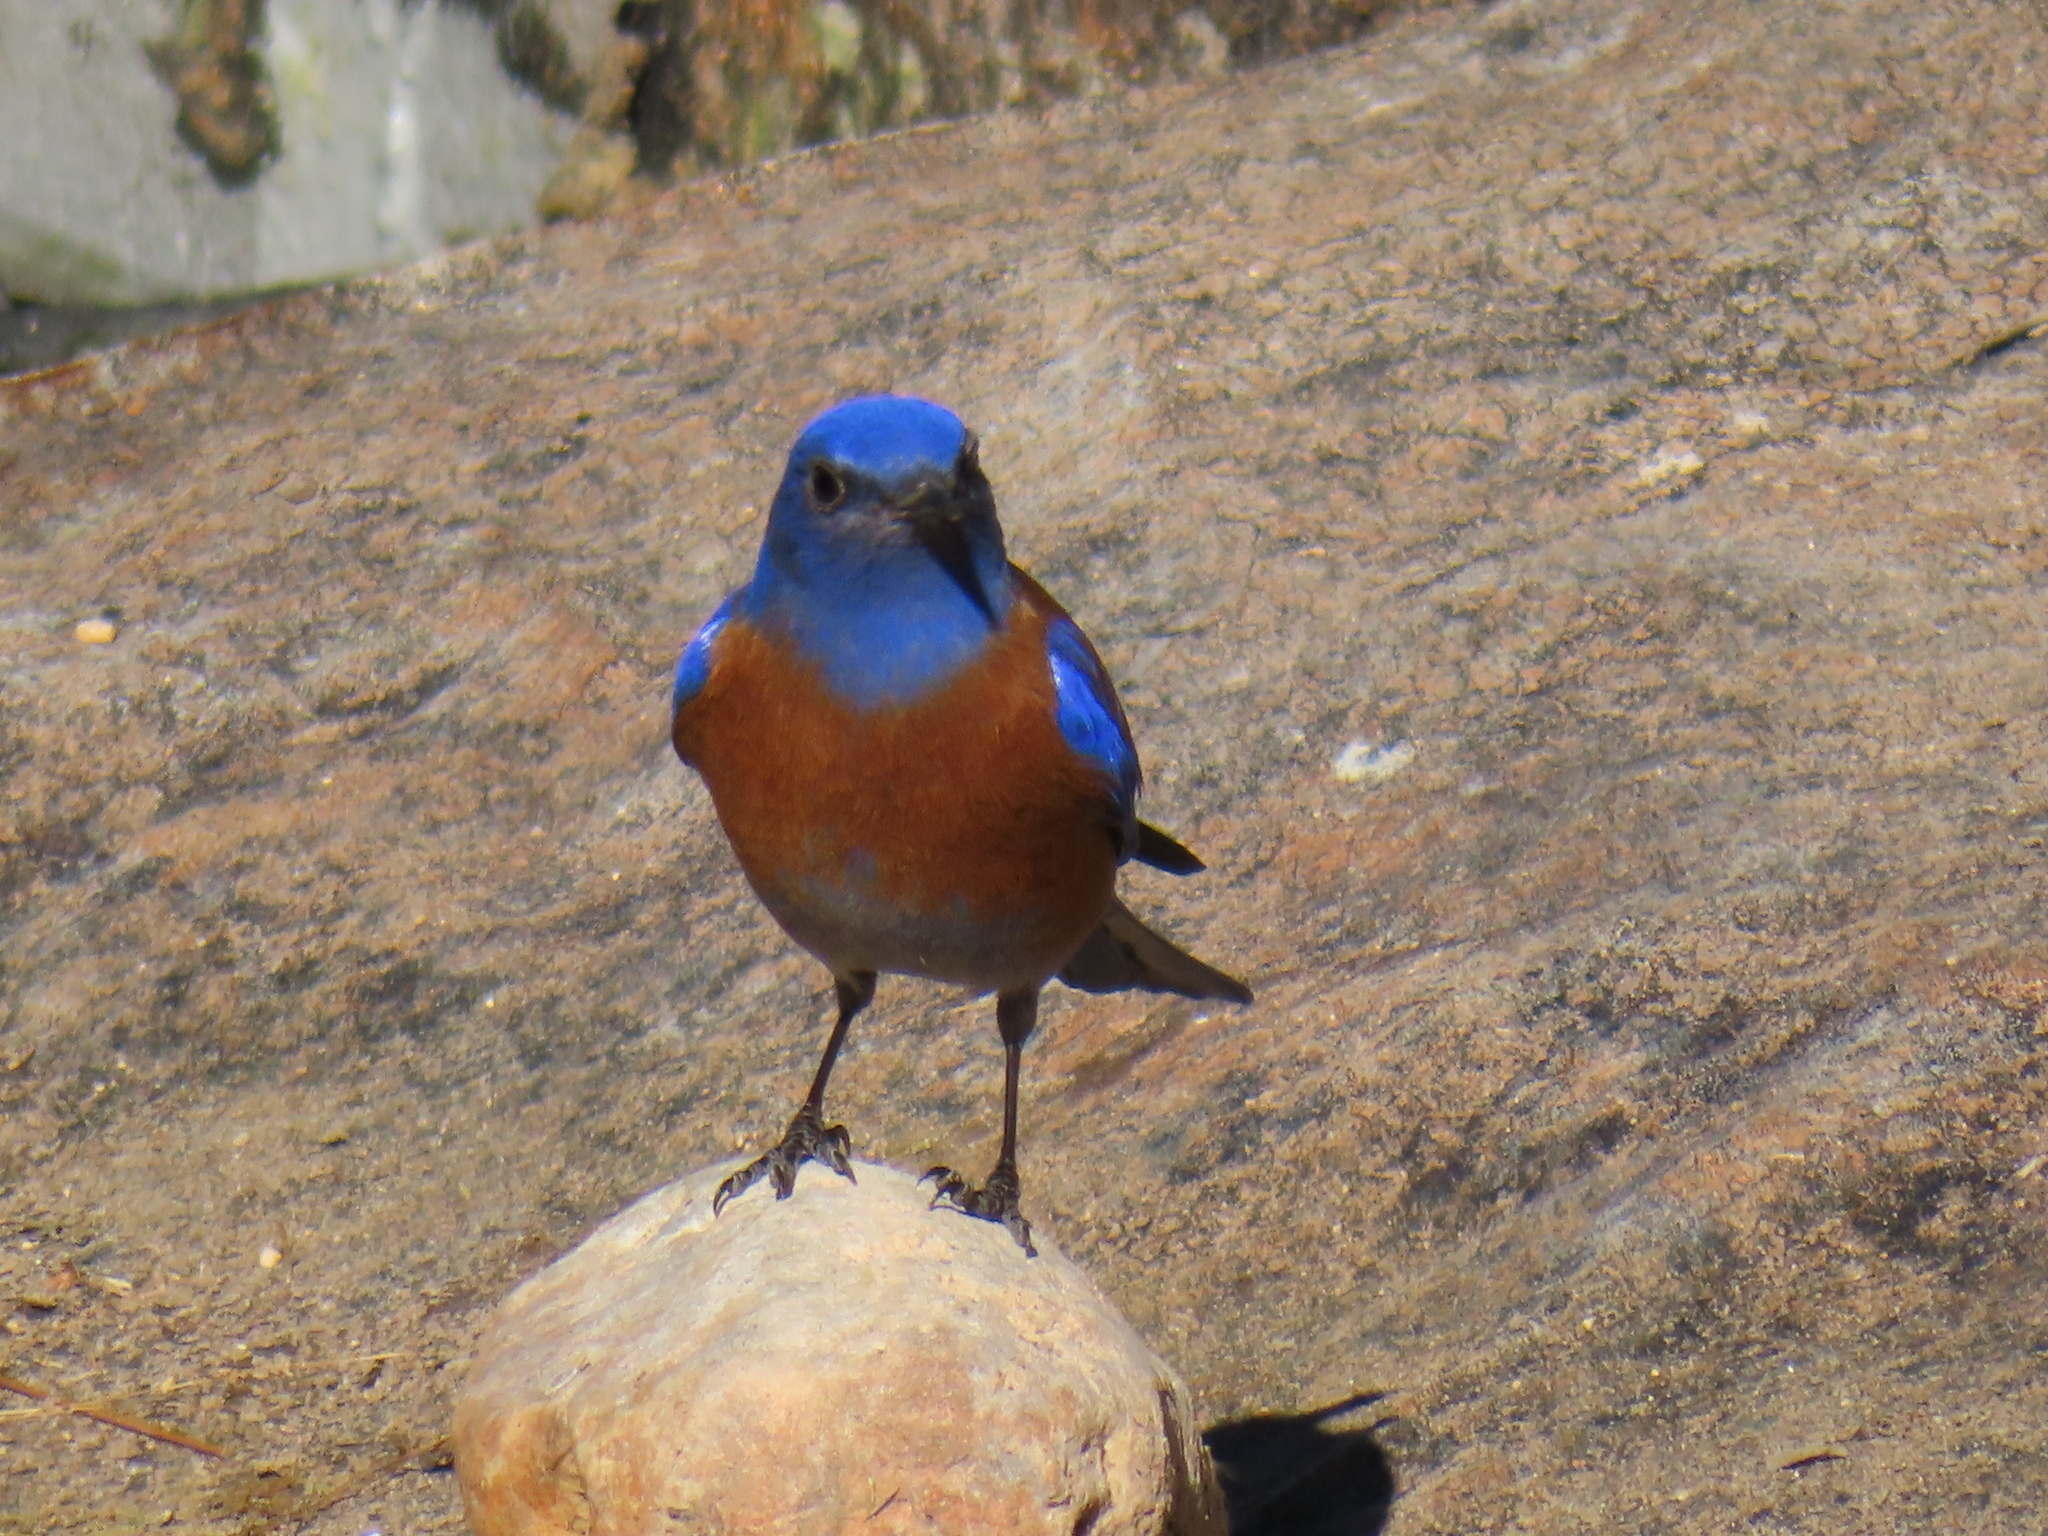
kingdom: Animalia
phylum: Chordata
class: Aves
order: Passeriformes
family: Turdidae
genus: Sialia
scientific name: Sialia mexicana
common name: Western bluebird
